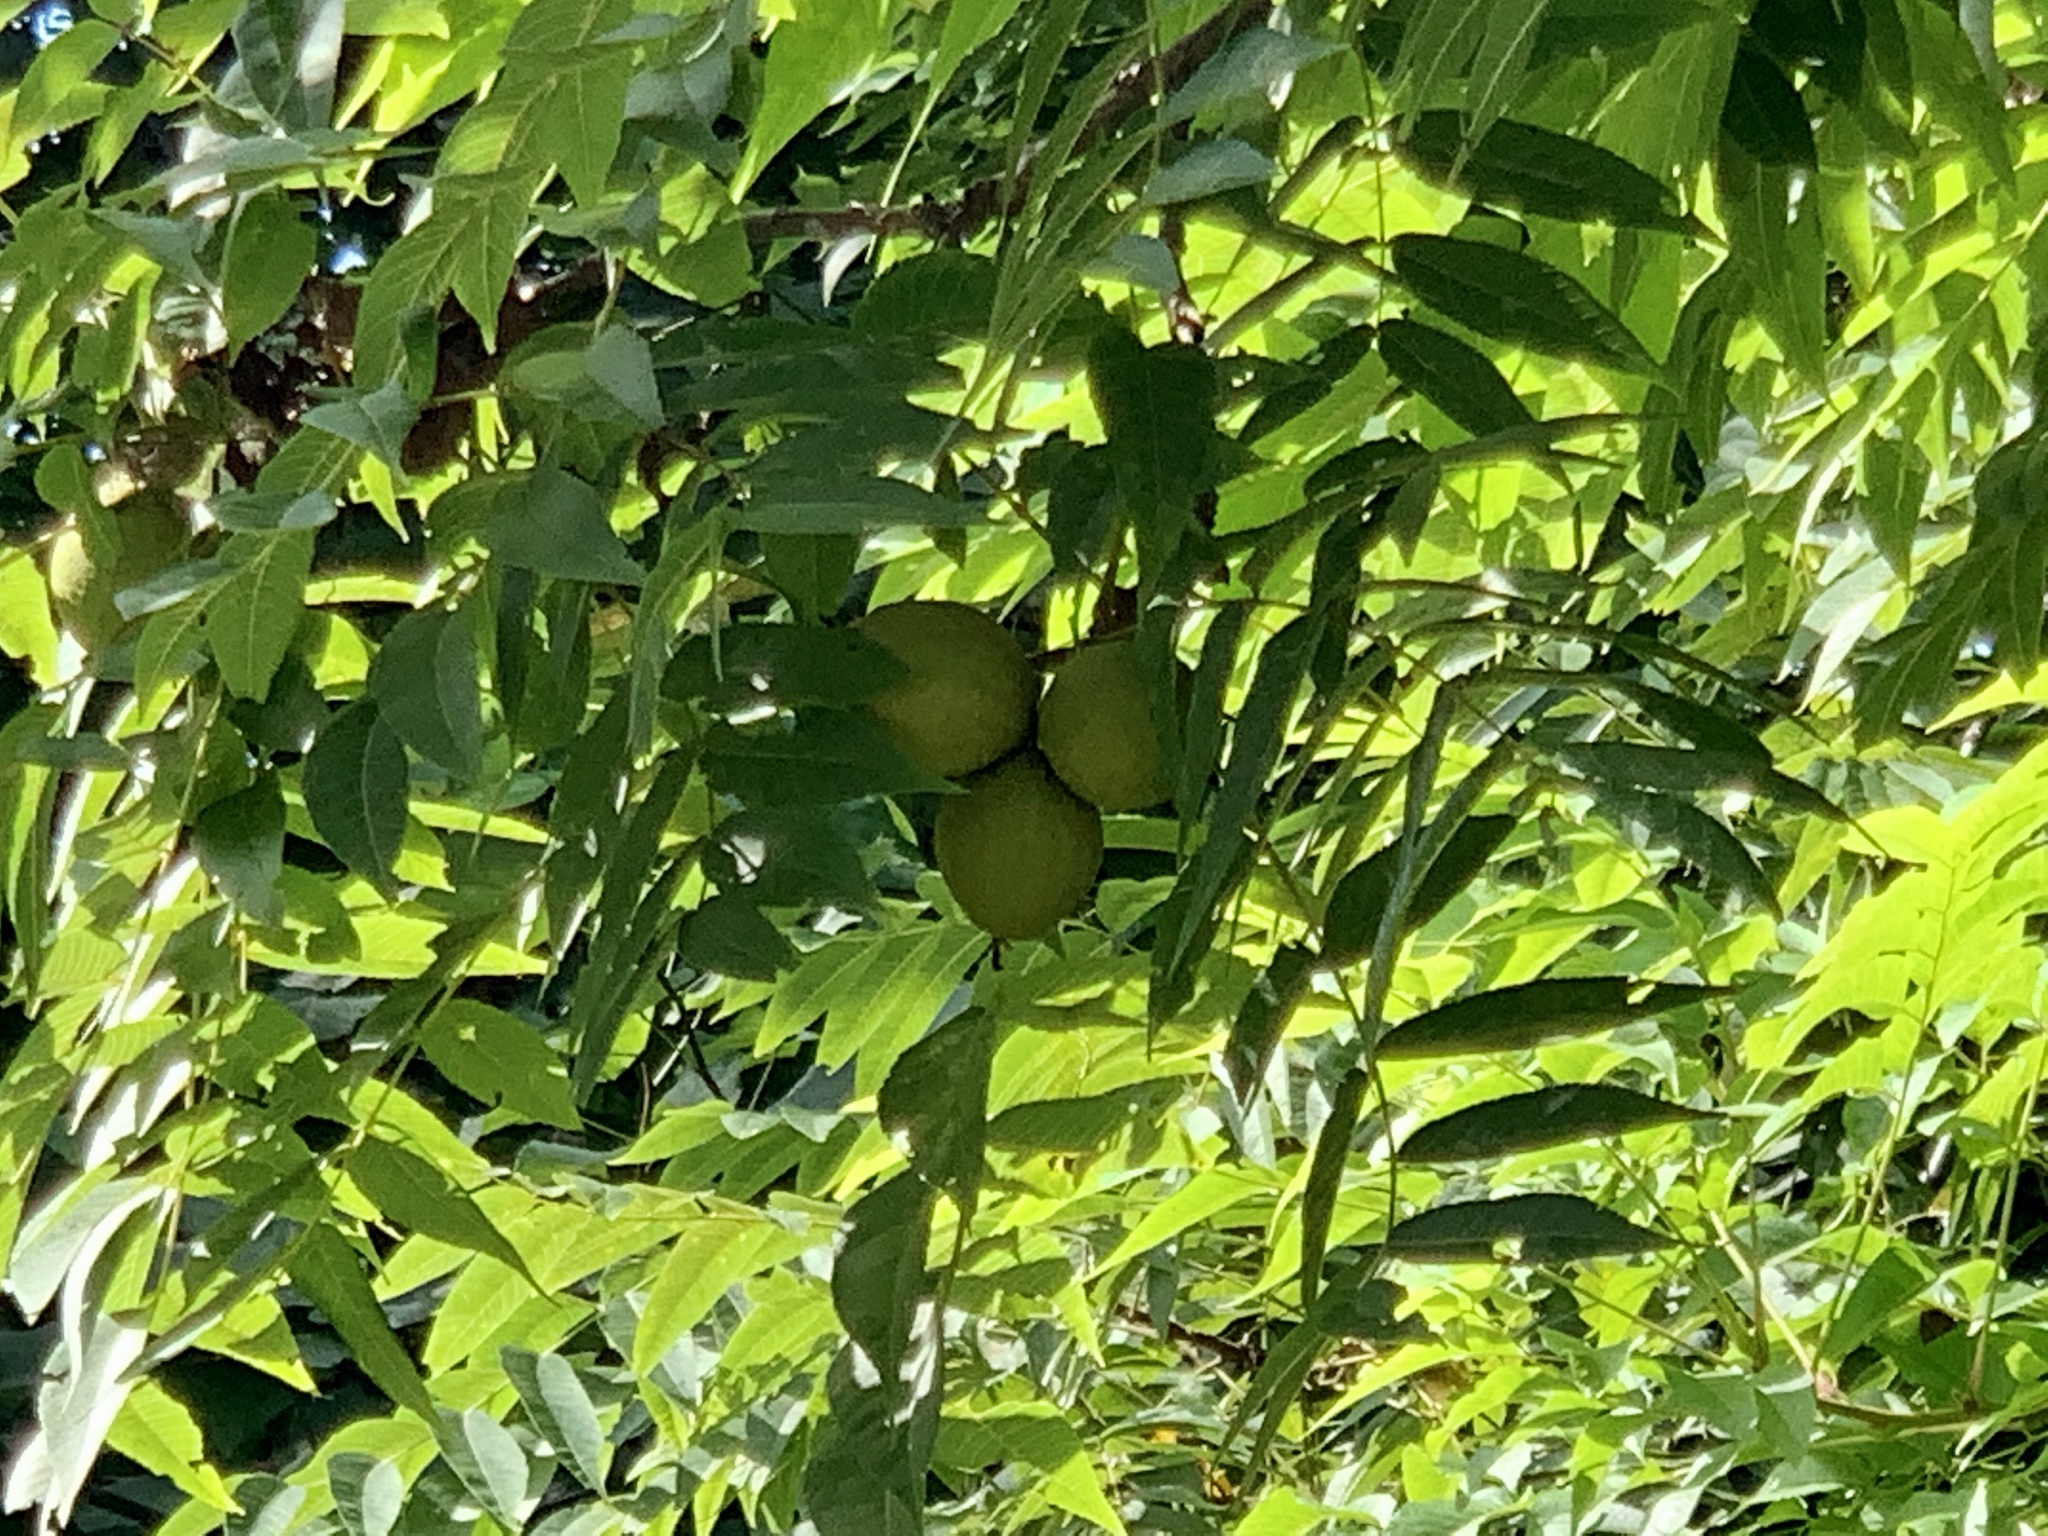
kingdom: Plantae
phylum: Tracheophyta
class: Magnoliopsida
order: Fagales
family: Juglandaceae
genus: Juglans
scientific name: Juglans nigra
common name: Black walnut
